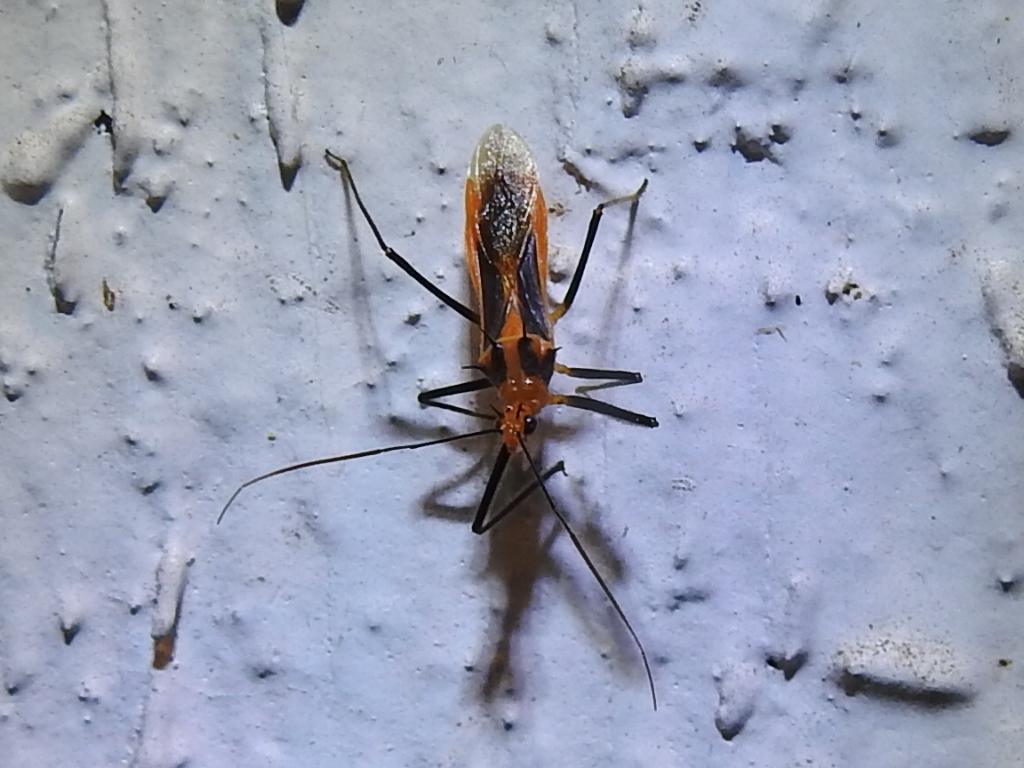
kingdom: Animalia
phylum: Arthropoda
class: Insecta
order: Hemiptera
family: Reduviidae
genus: Repipta
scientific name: Repipta taurus
